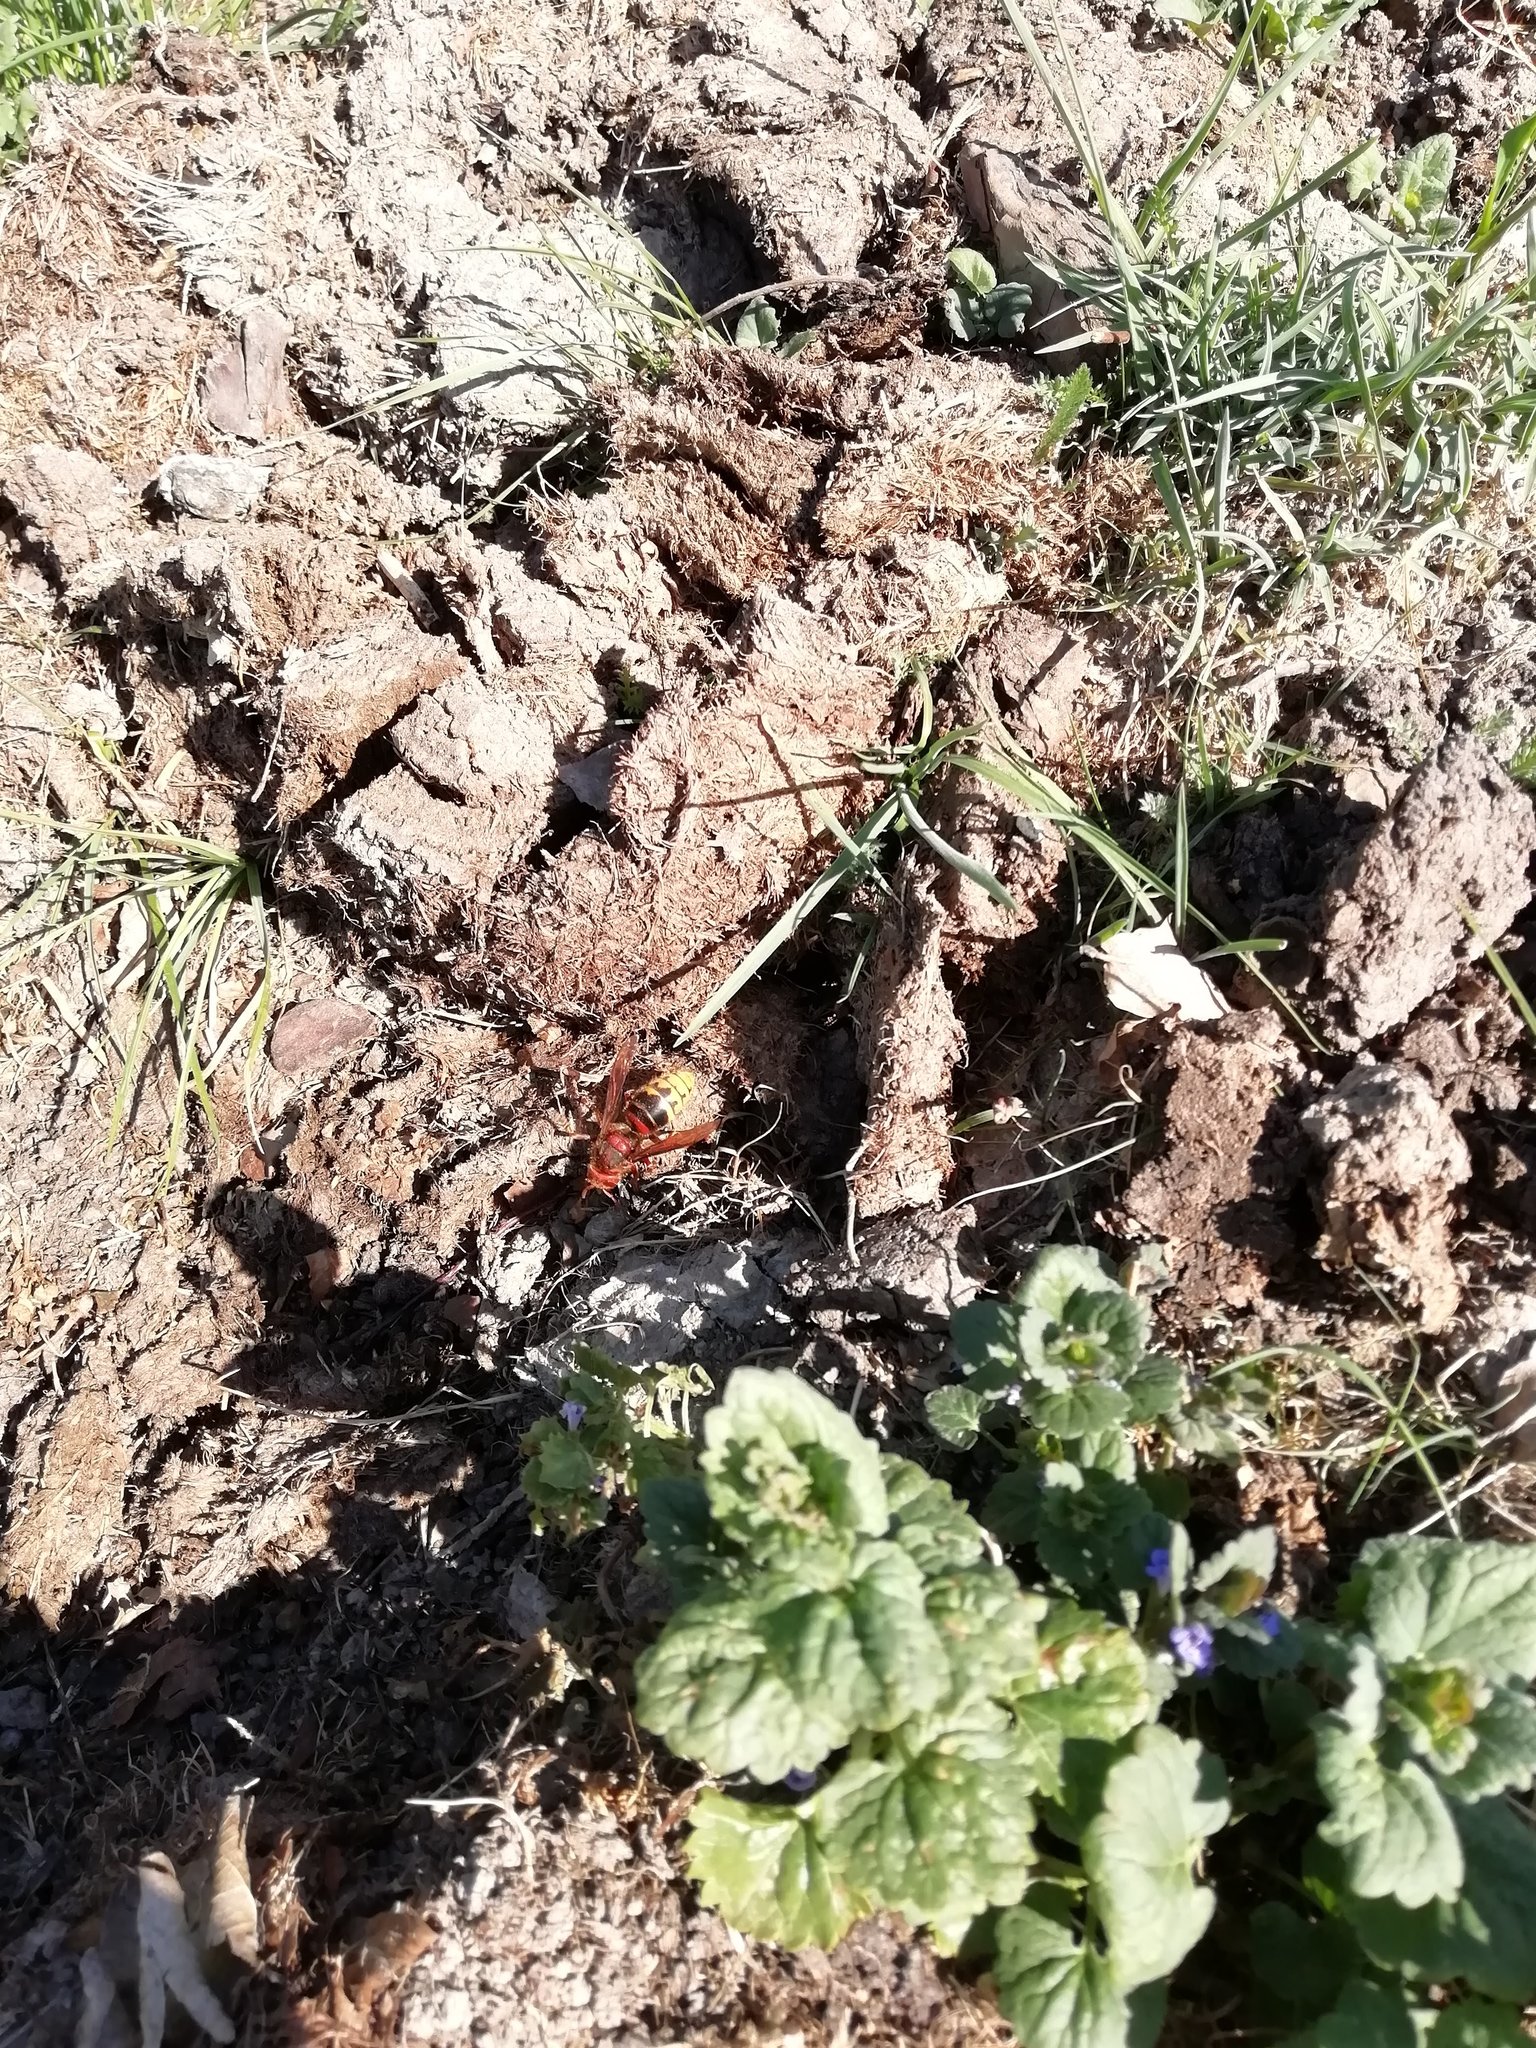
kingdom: Animalia
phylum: Arthropoda
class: Insecta
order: Hymenoptera
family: Vespidae
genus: Vespa
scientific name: Vespa crabro
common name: Hornet
